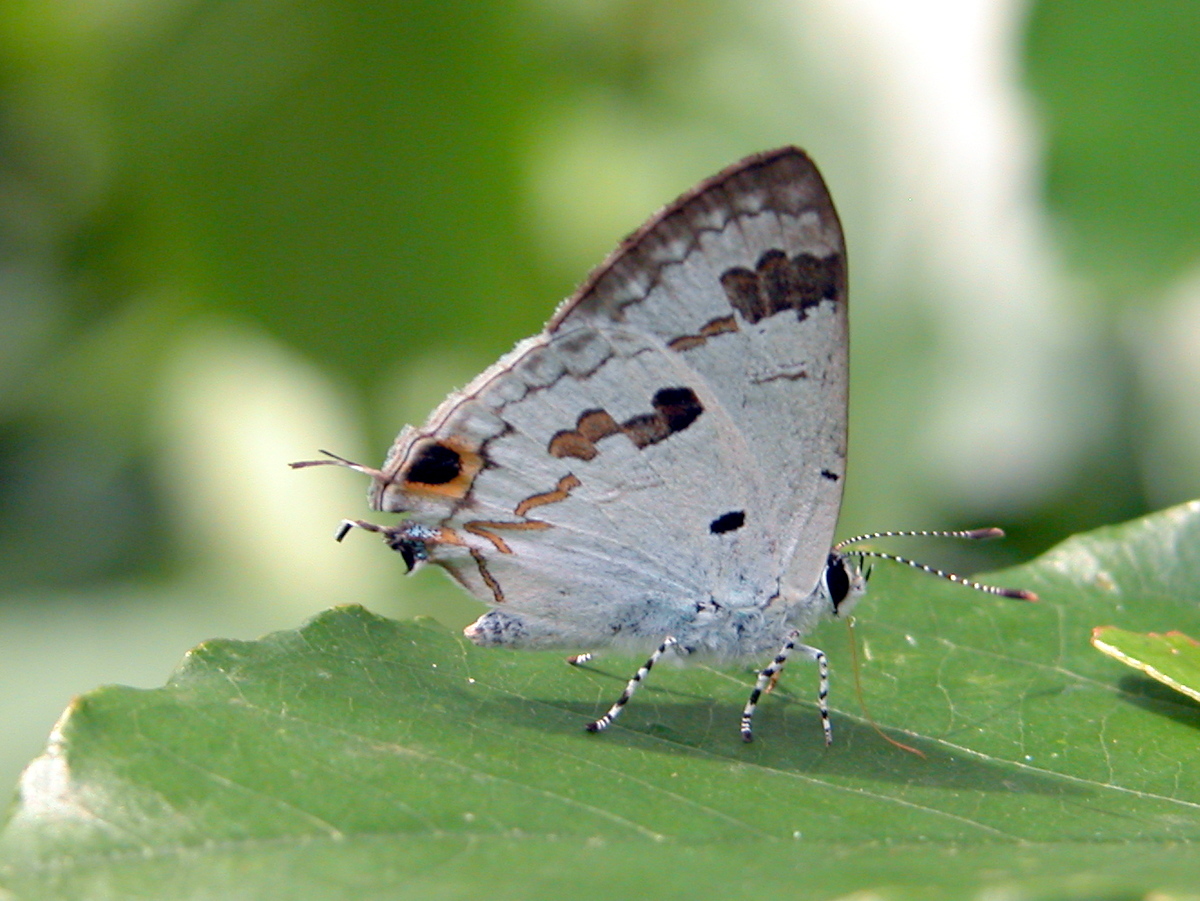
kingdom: Animalia
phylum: Arthropoda
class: Insecta
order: Lepidoptera
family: Lycaenidae
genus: Chliaria
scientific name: Chliaria othona
